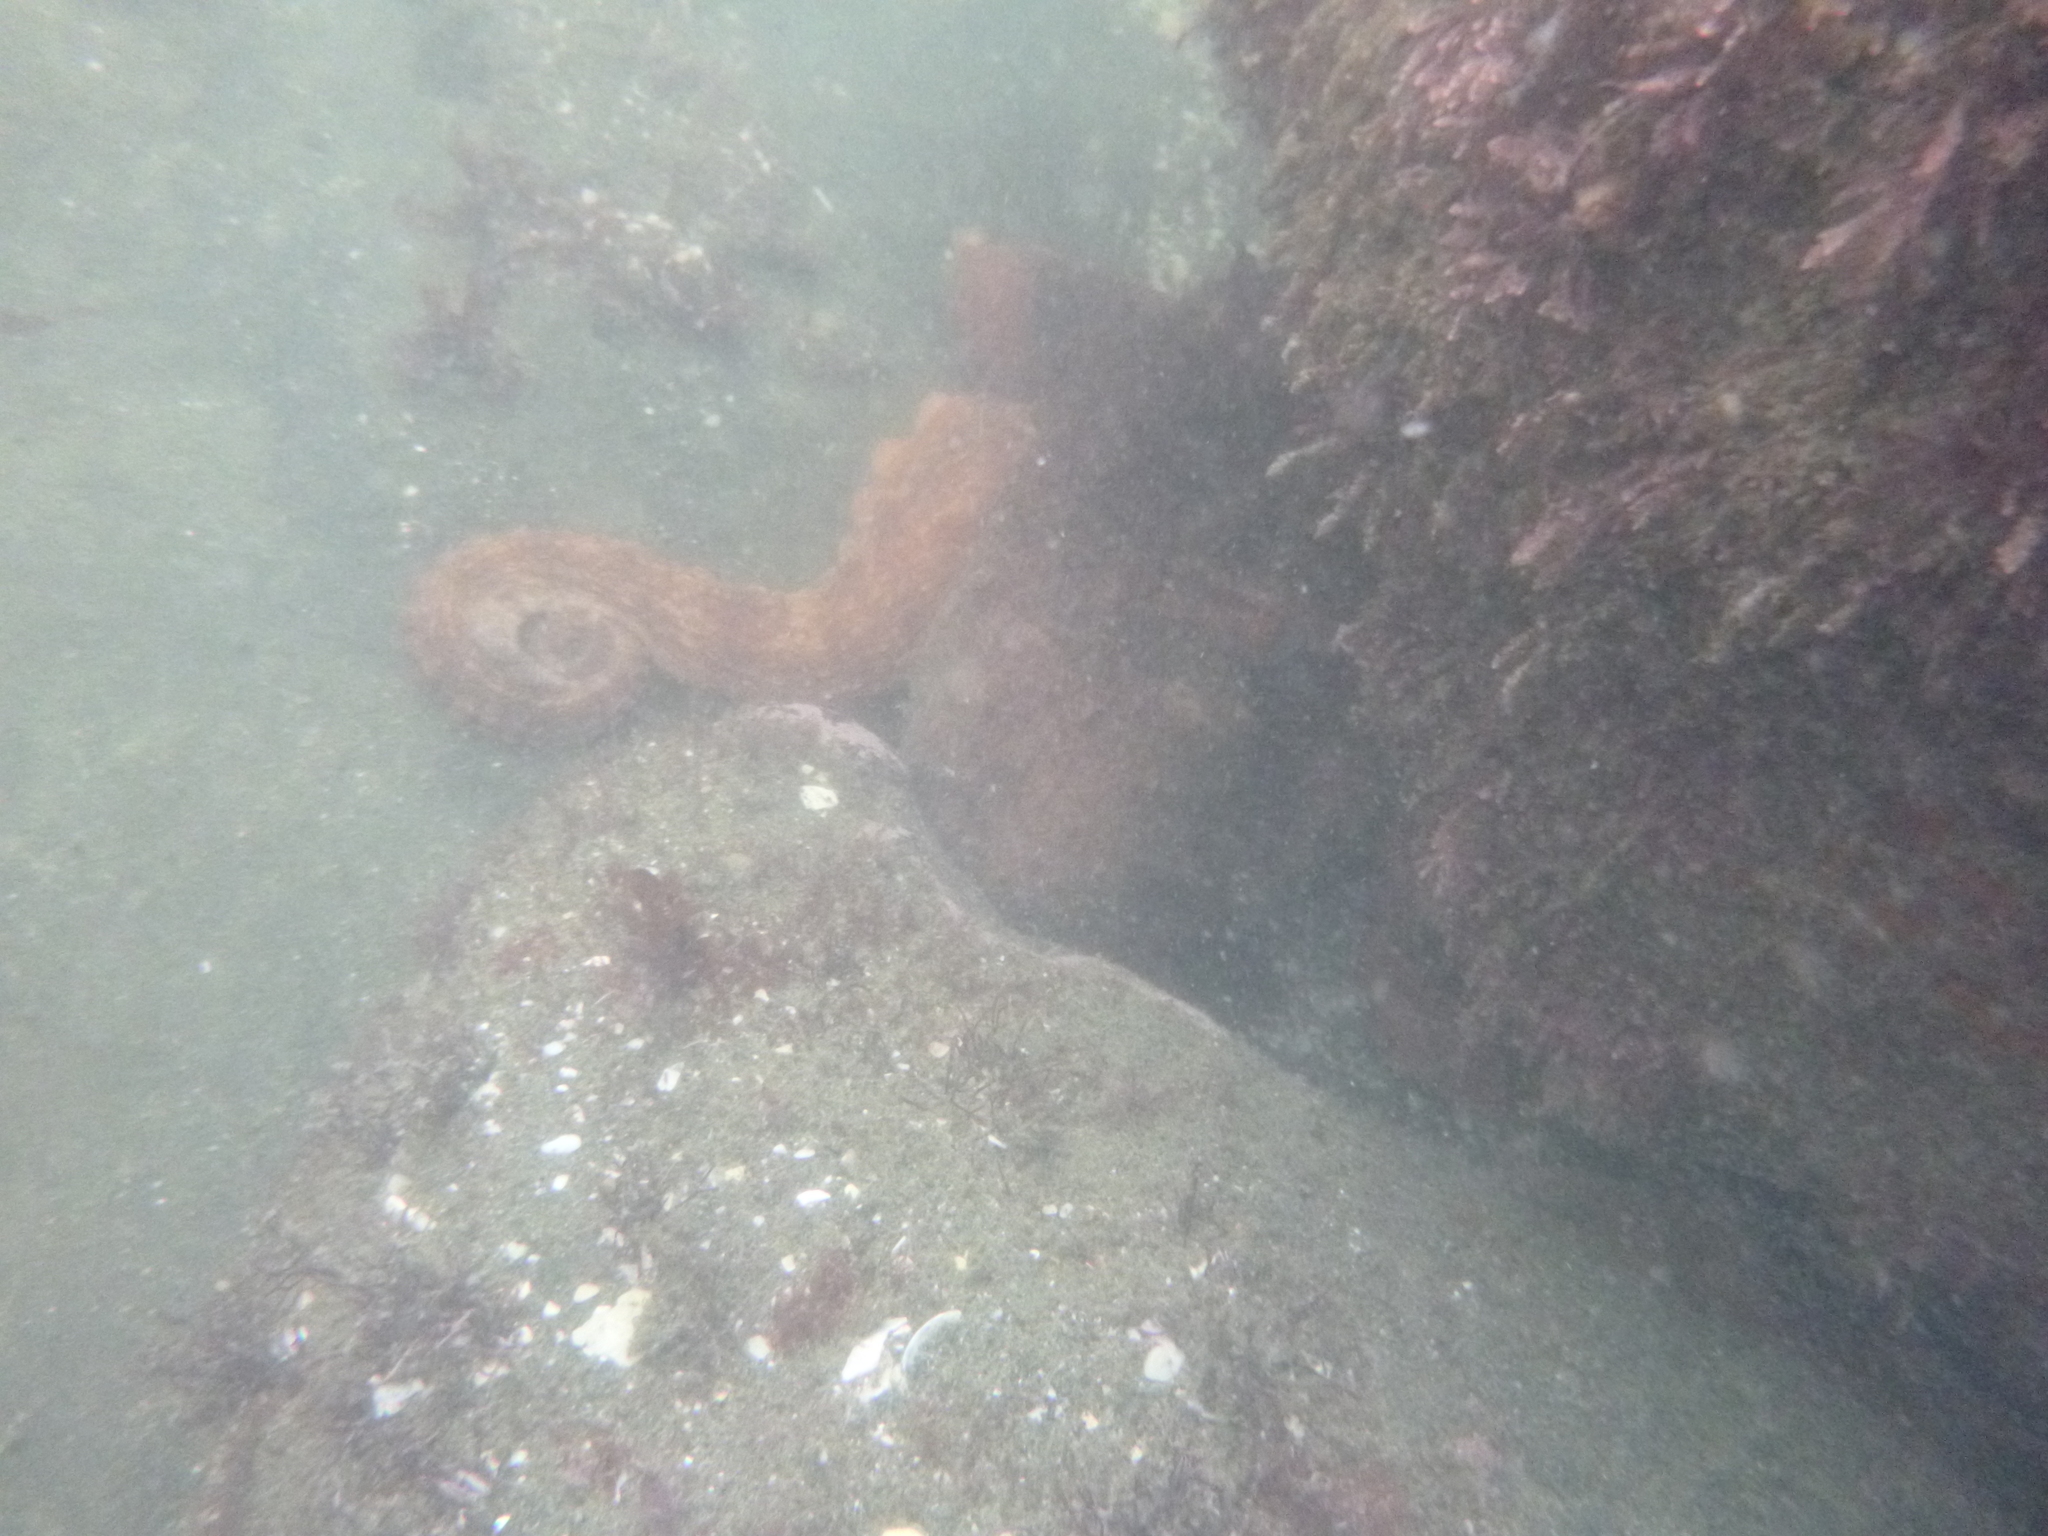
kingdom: Animalia
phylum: Mollusca
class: Cephalopoda
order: Octopoda
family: Octopodidae
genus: Octopus
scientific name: Octopus tetricus
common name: Sydney octopus
